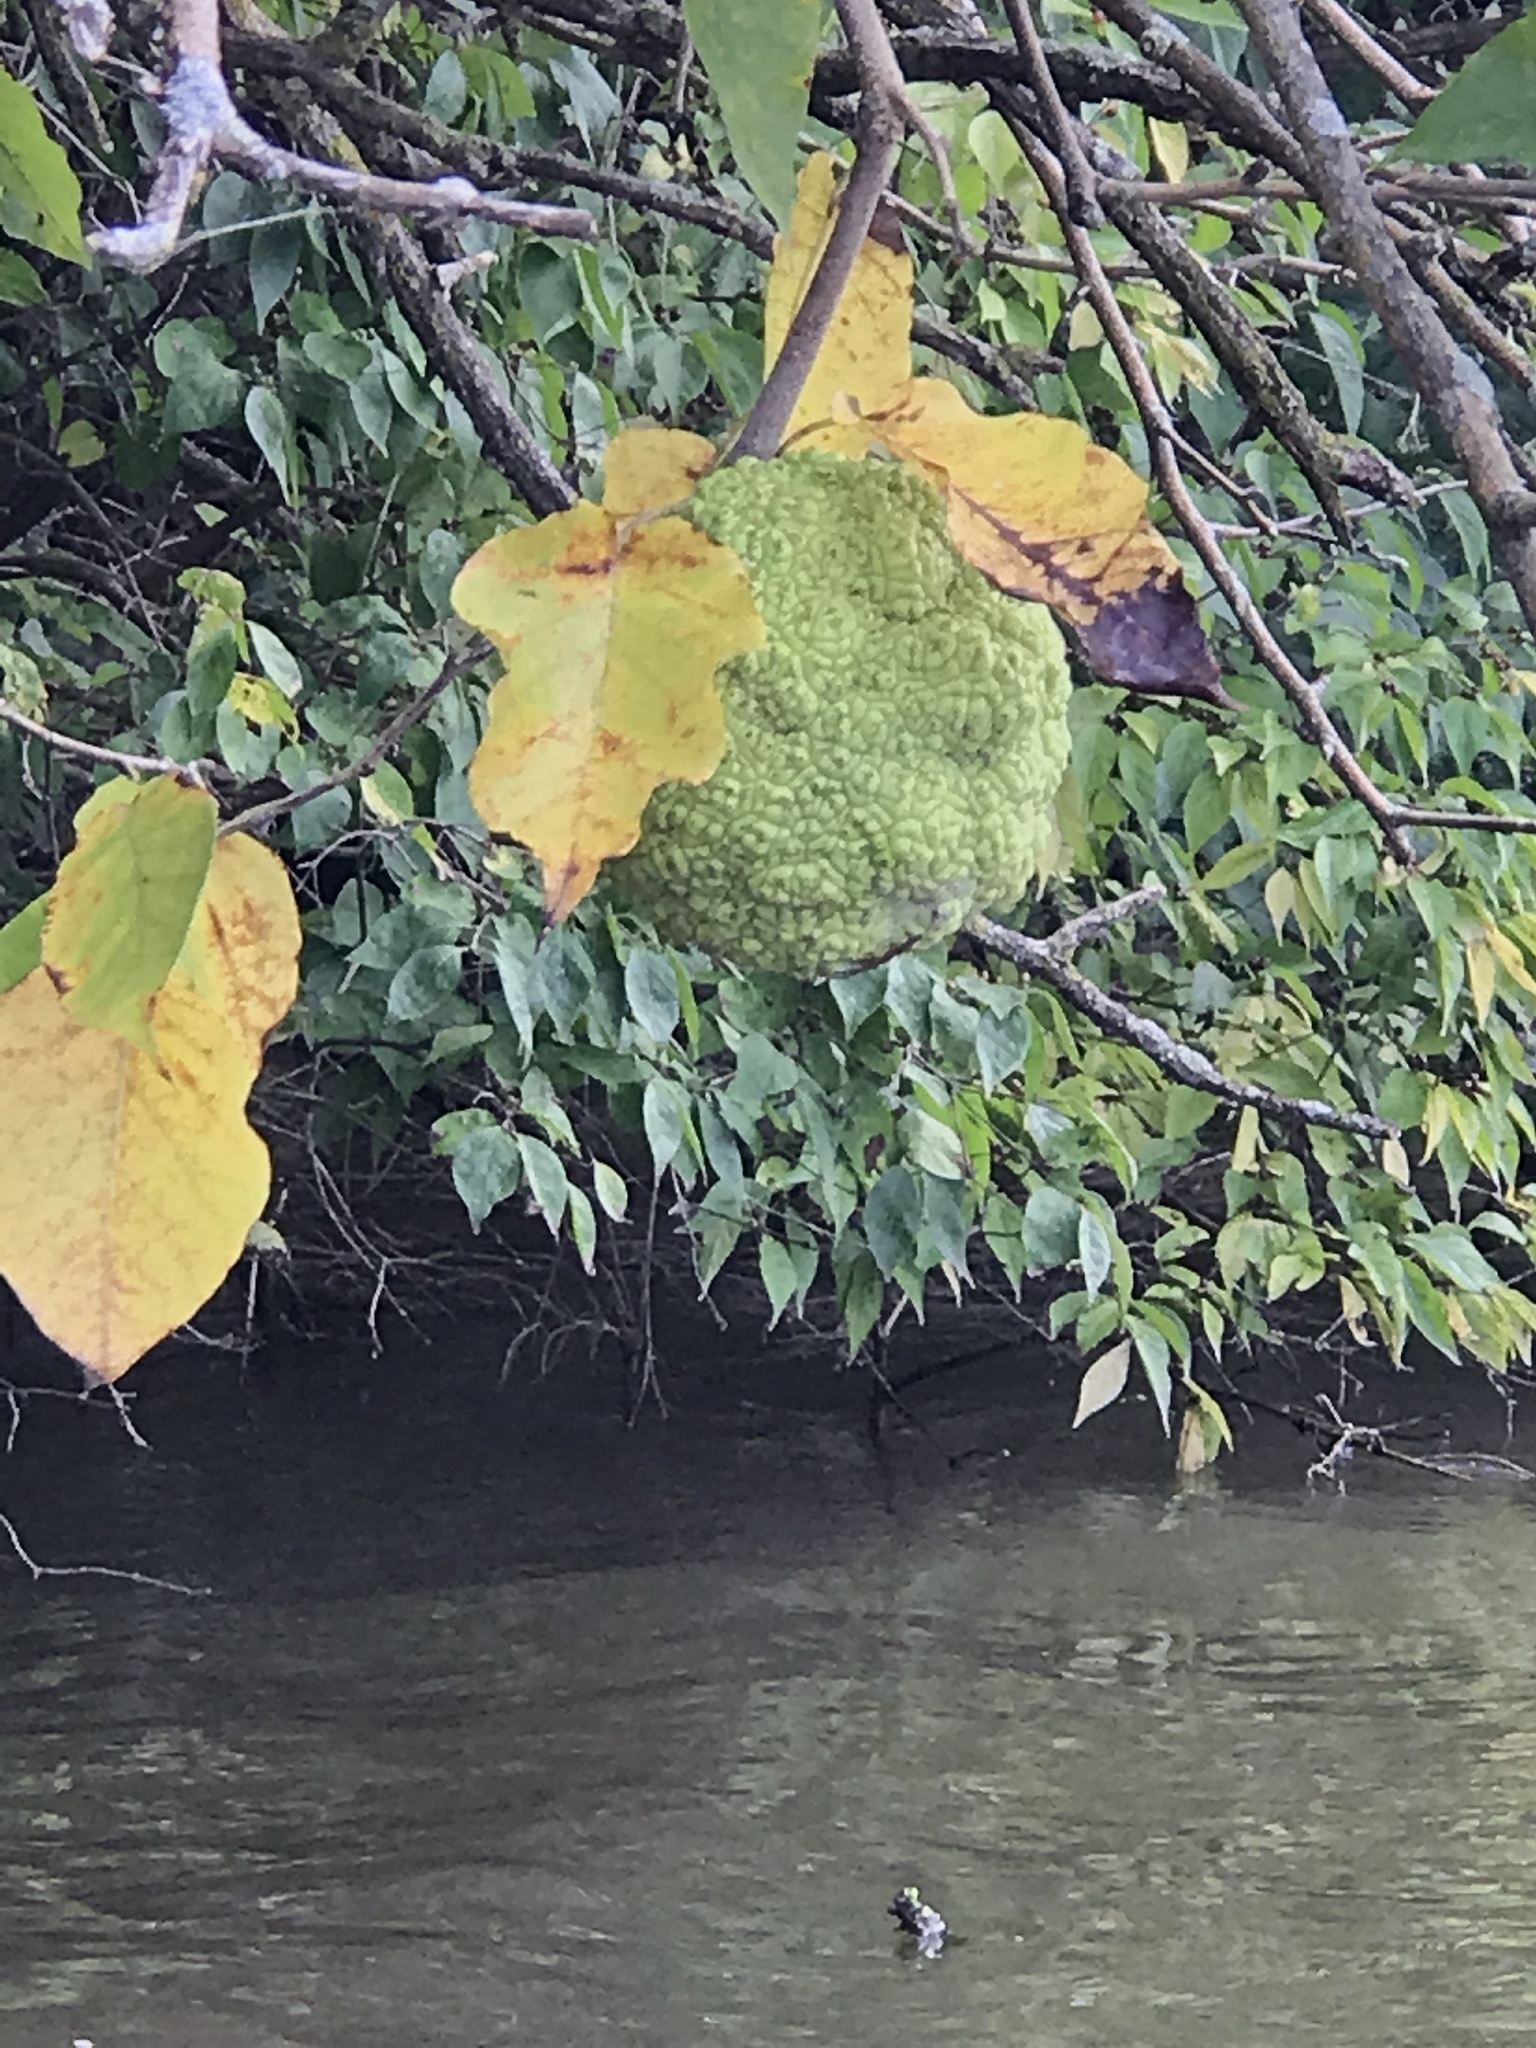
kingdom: Plantae
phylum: Tracheophyta
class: Magnoliopsida
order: Rosales
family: Moraceae
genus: Maclura
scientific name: Maclura pomifera
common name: Osage-orange
